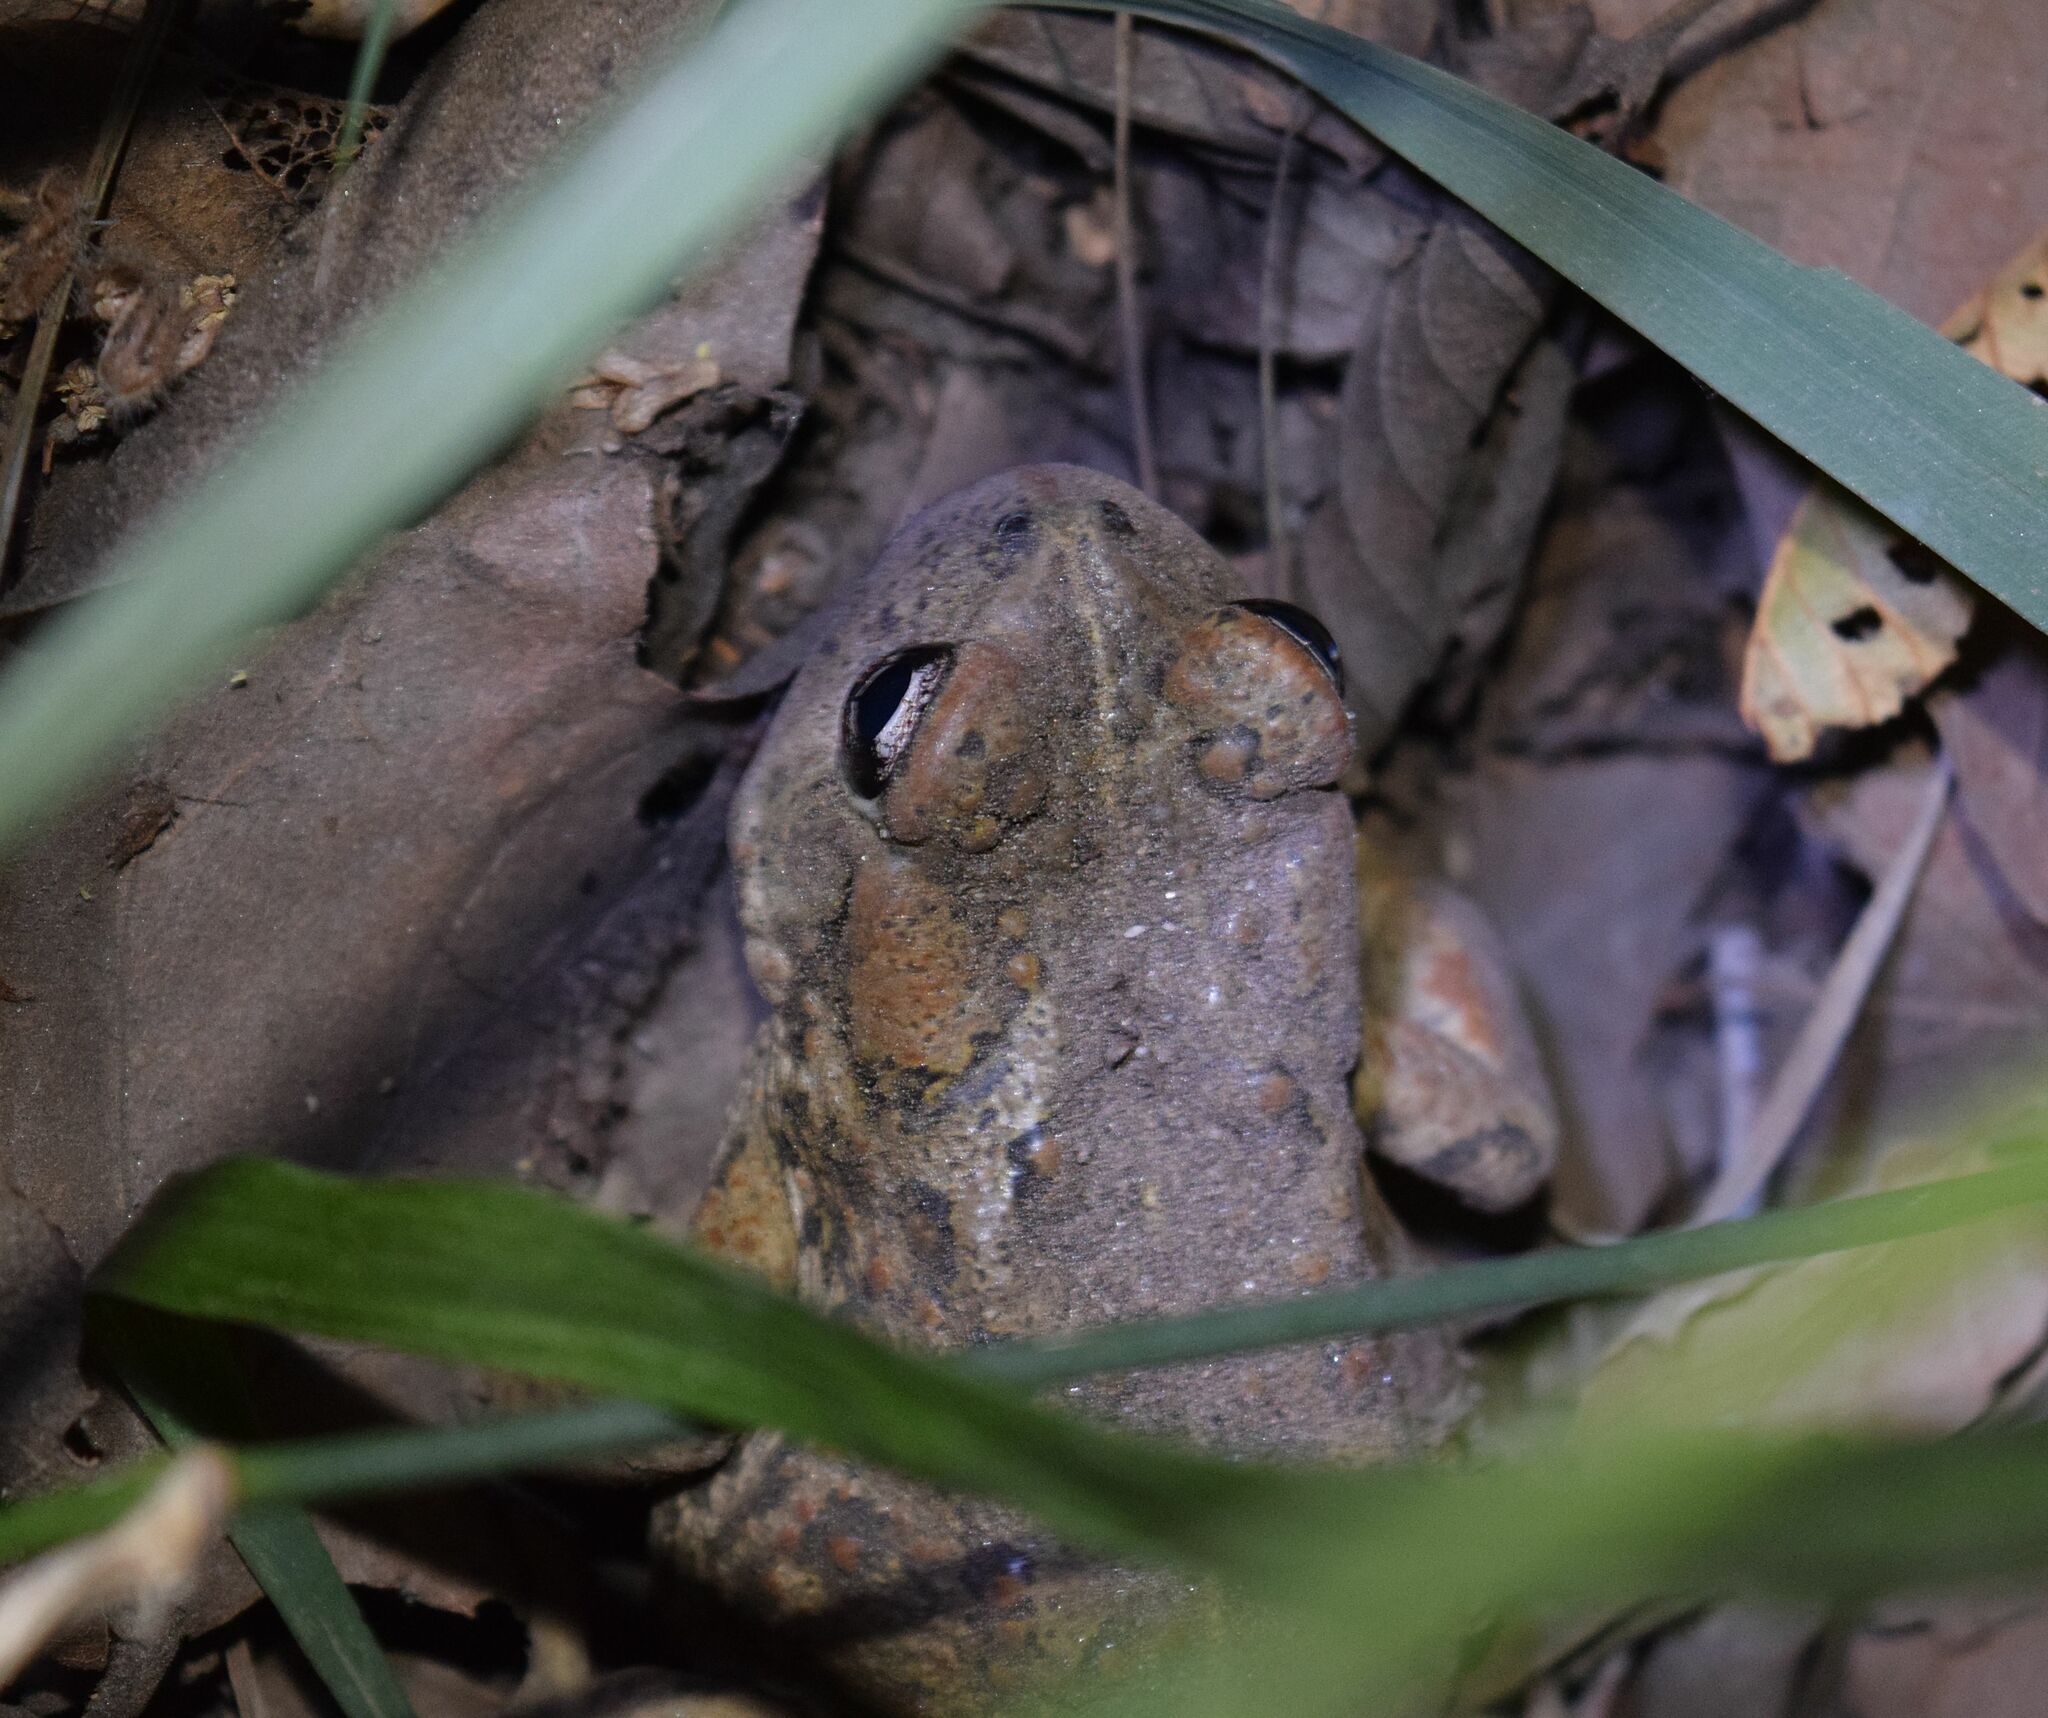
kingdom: Animalia
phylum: Chordata
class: Amphibia
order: Anura
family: Bufonidae
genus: Anaxyrus
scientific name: Anaxyrus boreas
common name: Western toad
